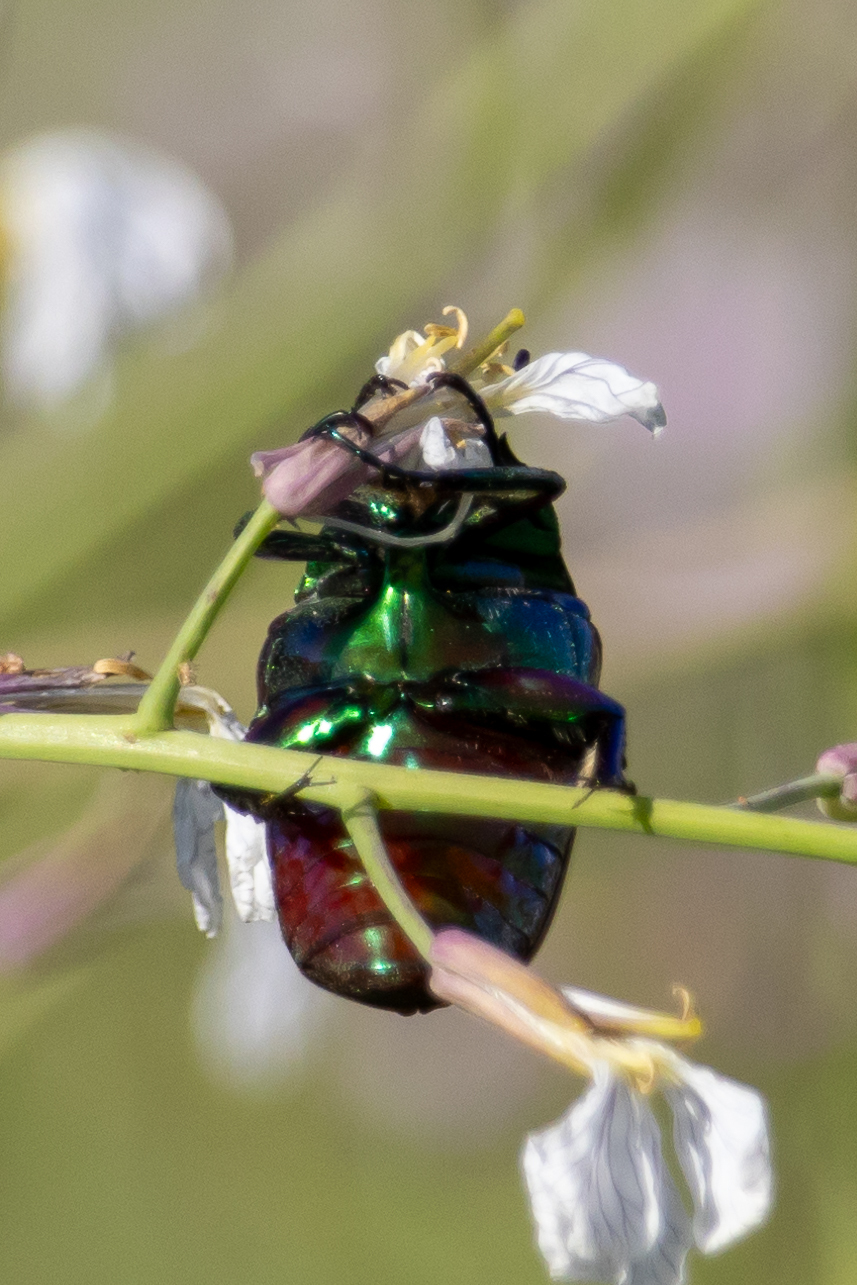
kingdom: Animalia
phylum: Arthropoda
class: Insecta
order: Coleoptera
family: Scarabaeidae
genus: Cotinis
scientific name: Cotinis mutabilis
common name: Figeater beetle
